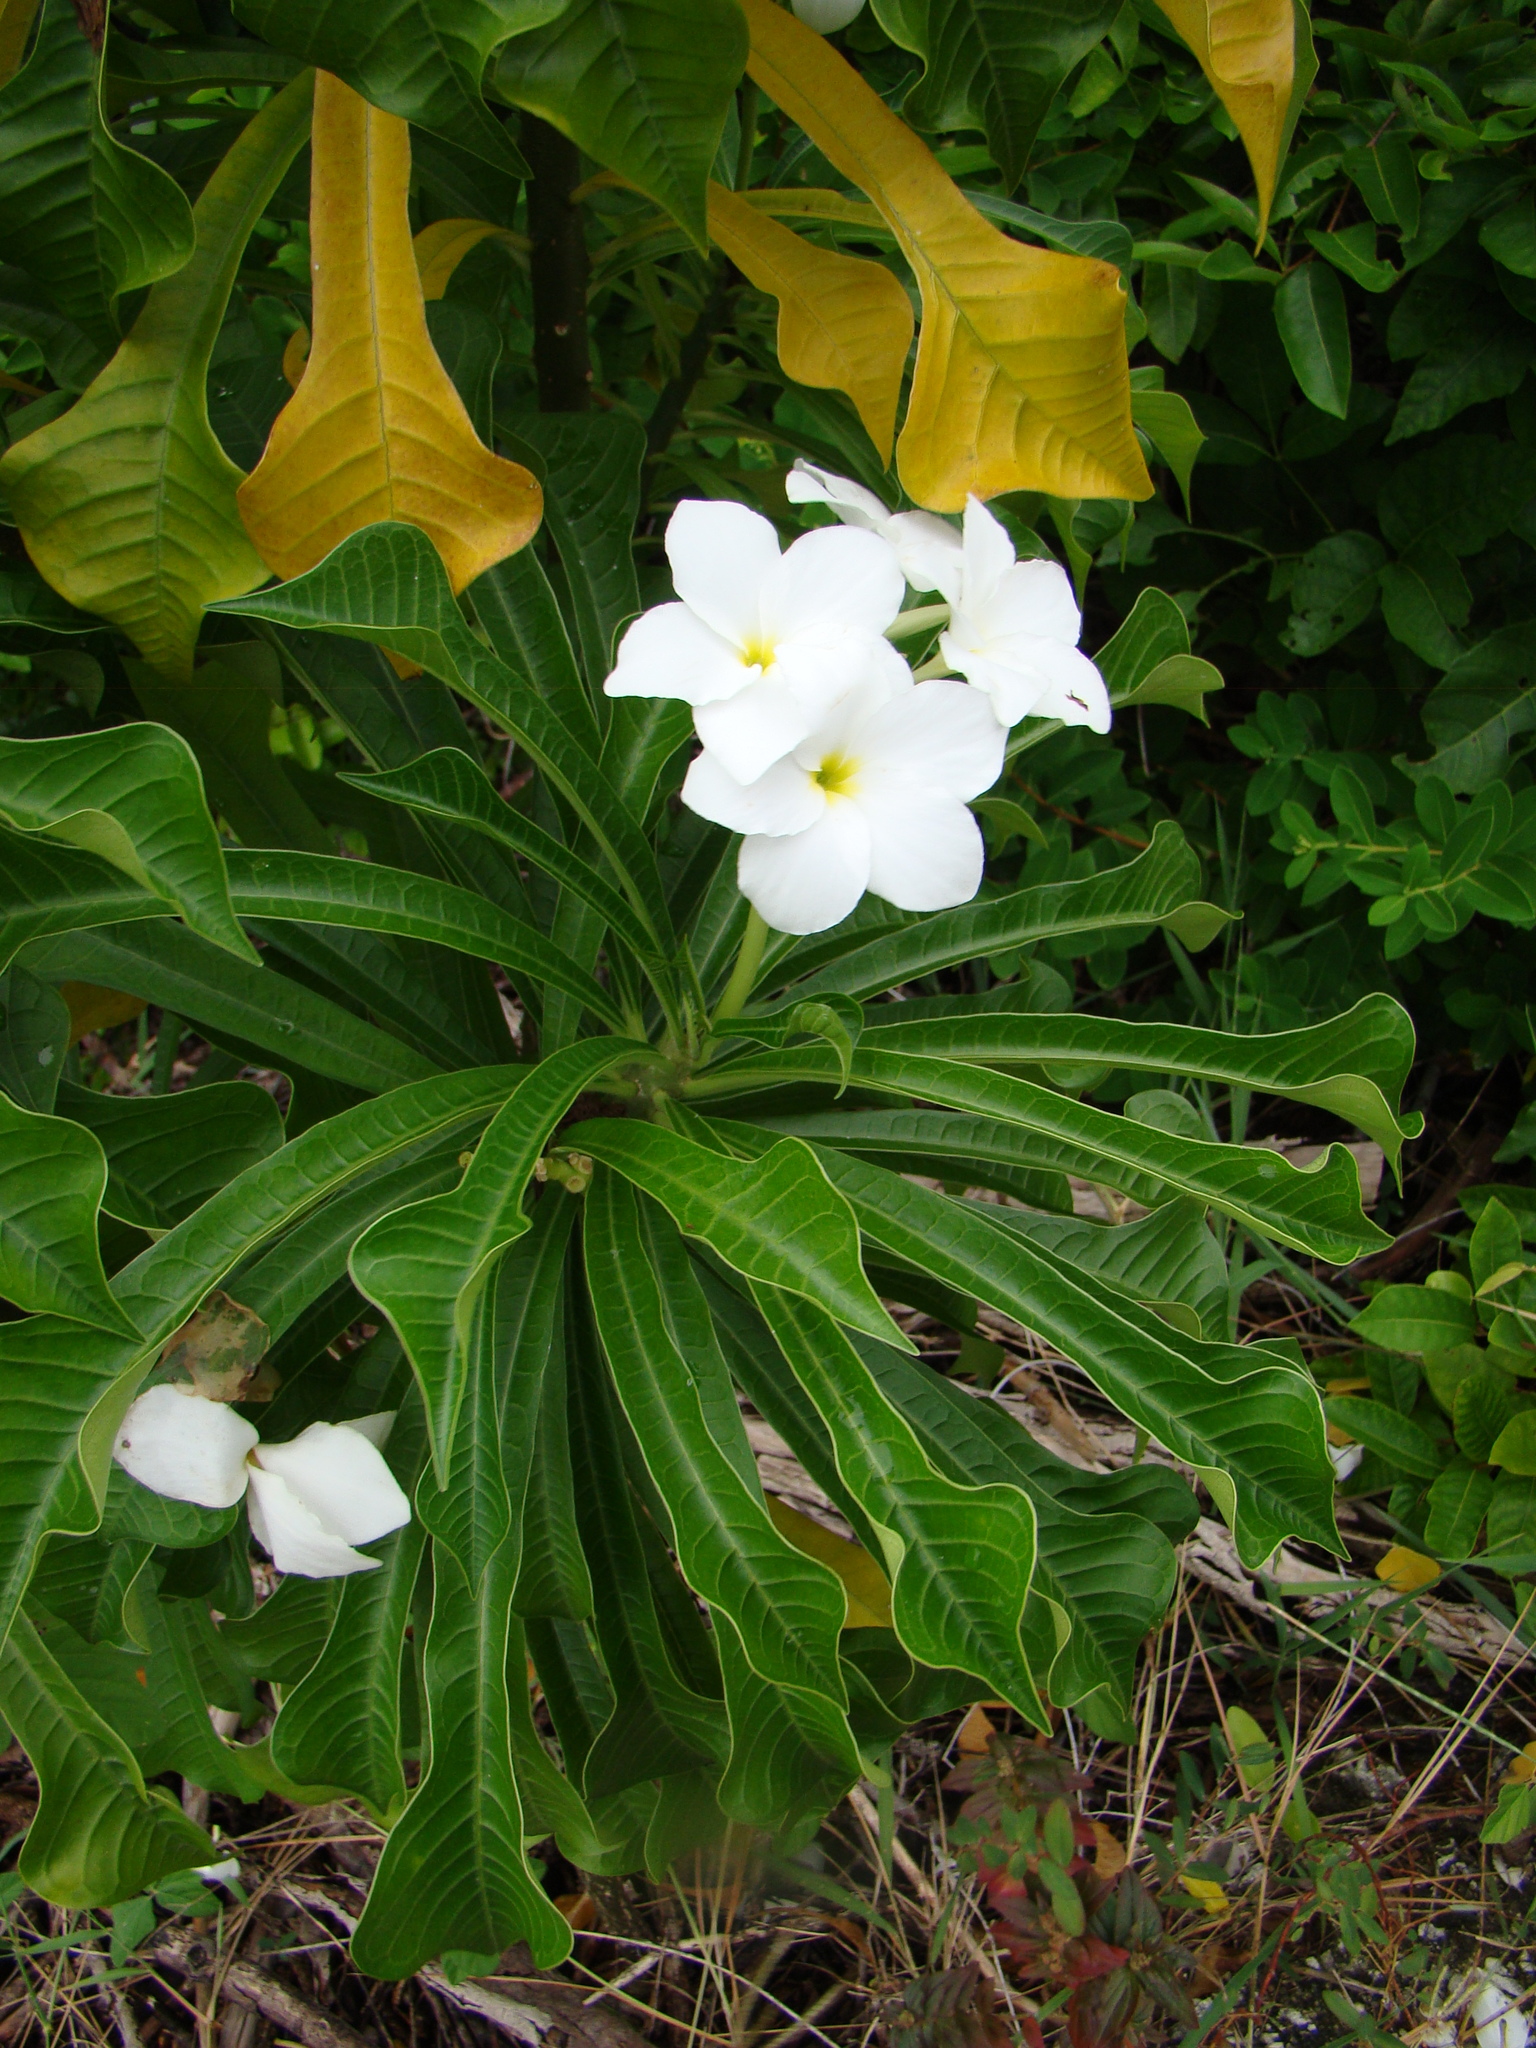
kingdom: Plantae
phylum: Tracheophyta
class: Magnoliopsida
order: Gentianales
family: Apocynaceae
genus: Plumeria
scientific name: Plumeria pudica
